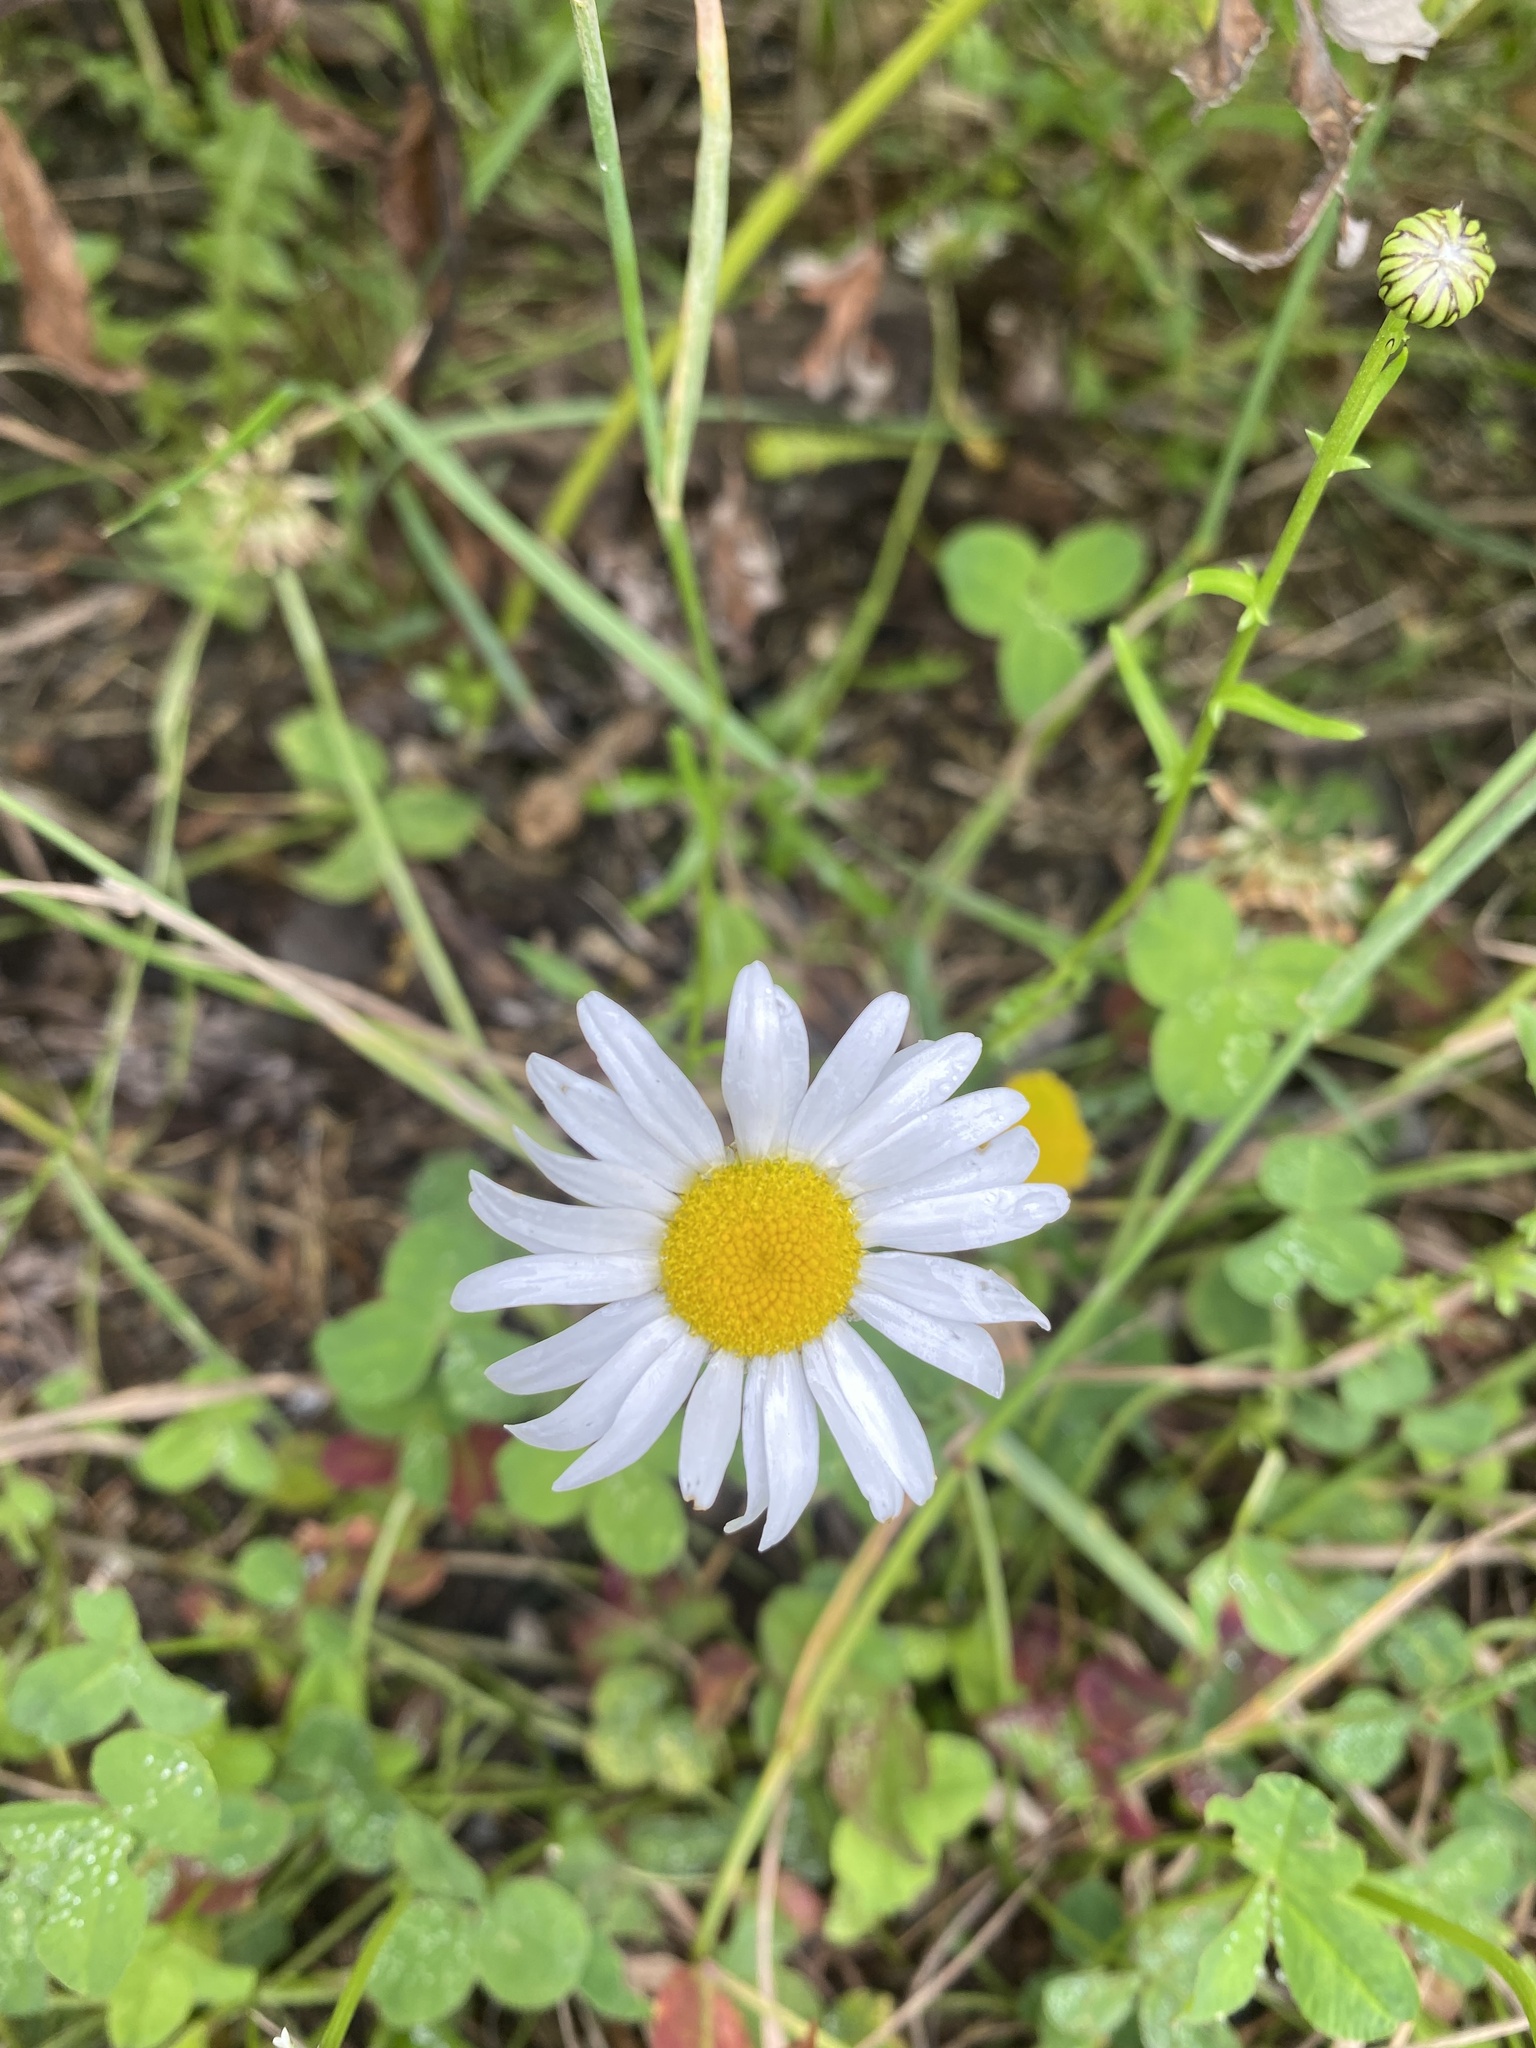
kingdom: Plantae
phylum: Tracheophyta
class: Magnoliopsida
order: Asterales
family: Asteraceae
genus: Leucanthemum
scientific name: Leucanthemum vulgare
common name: Oxeye daisy
